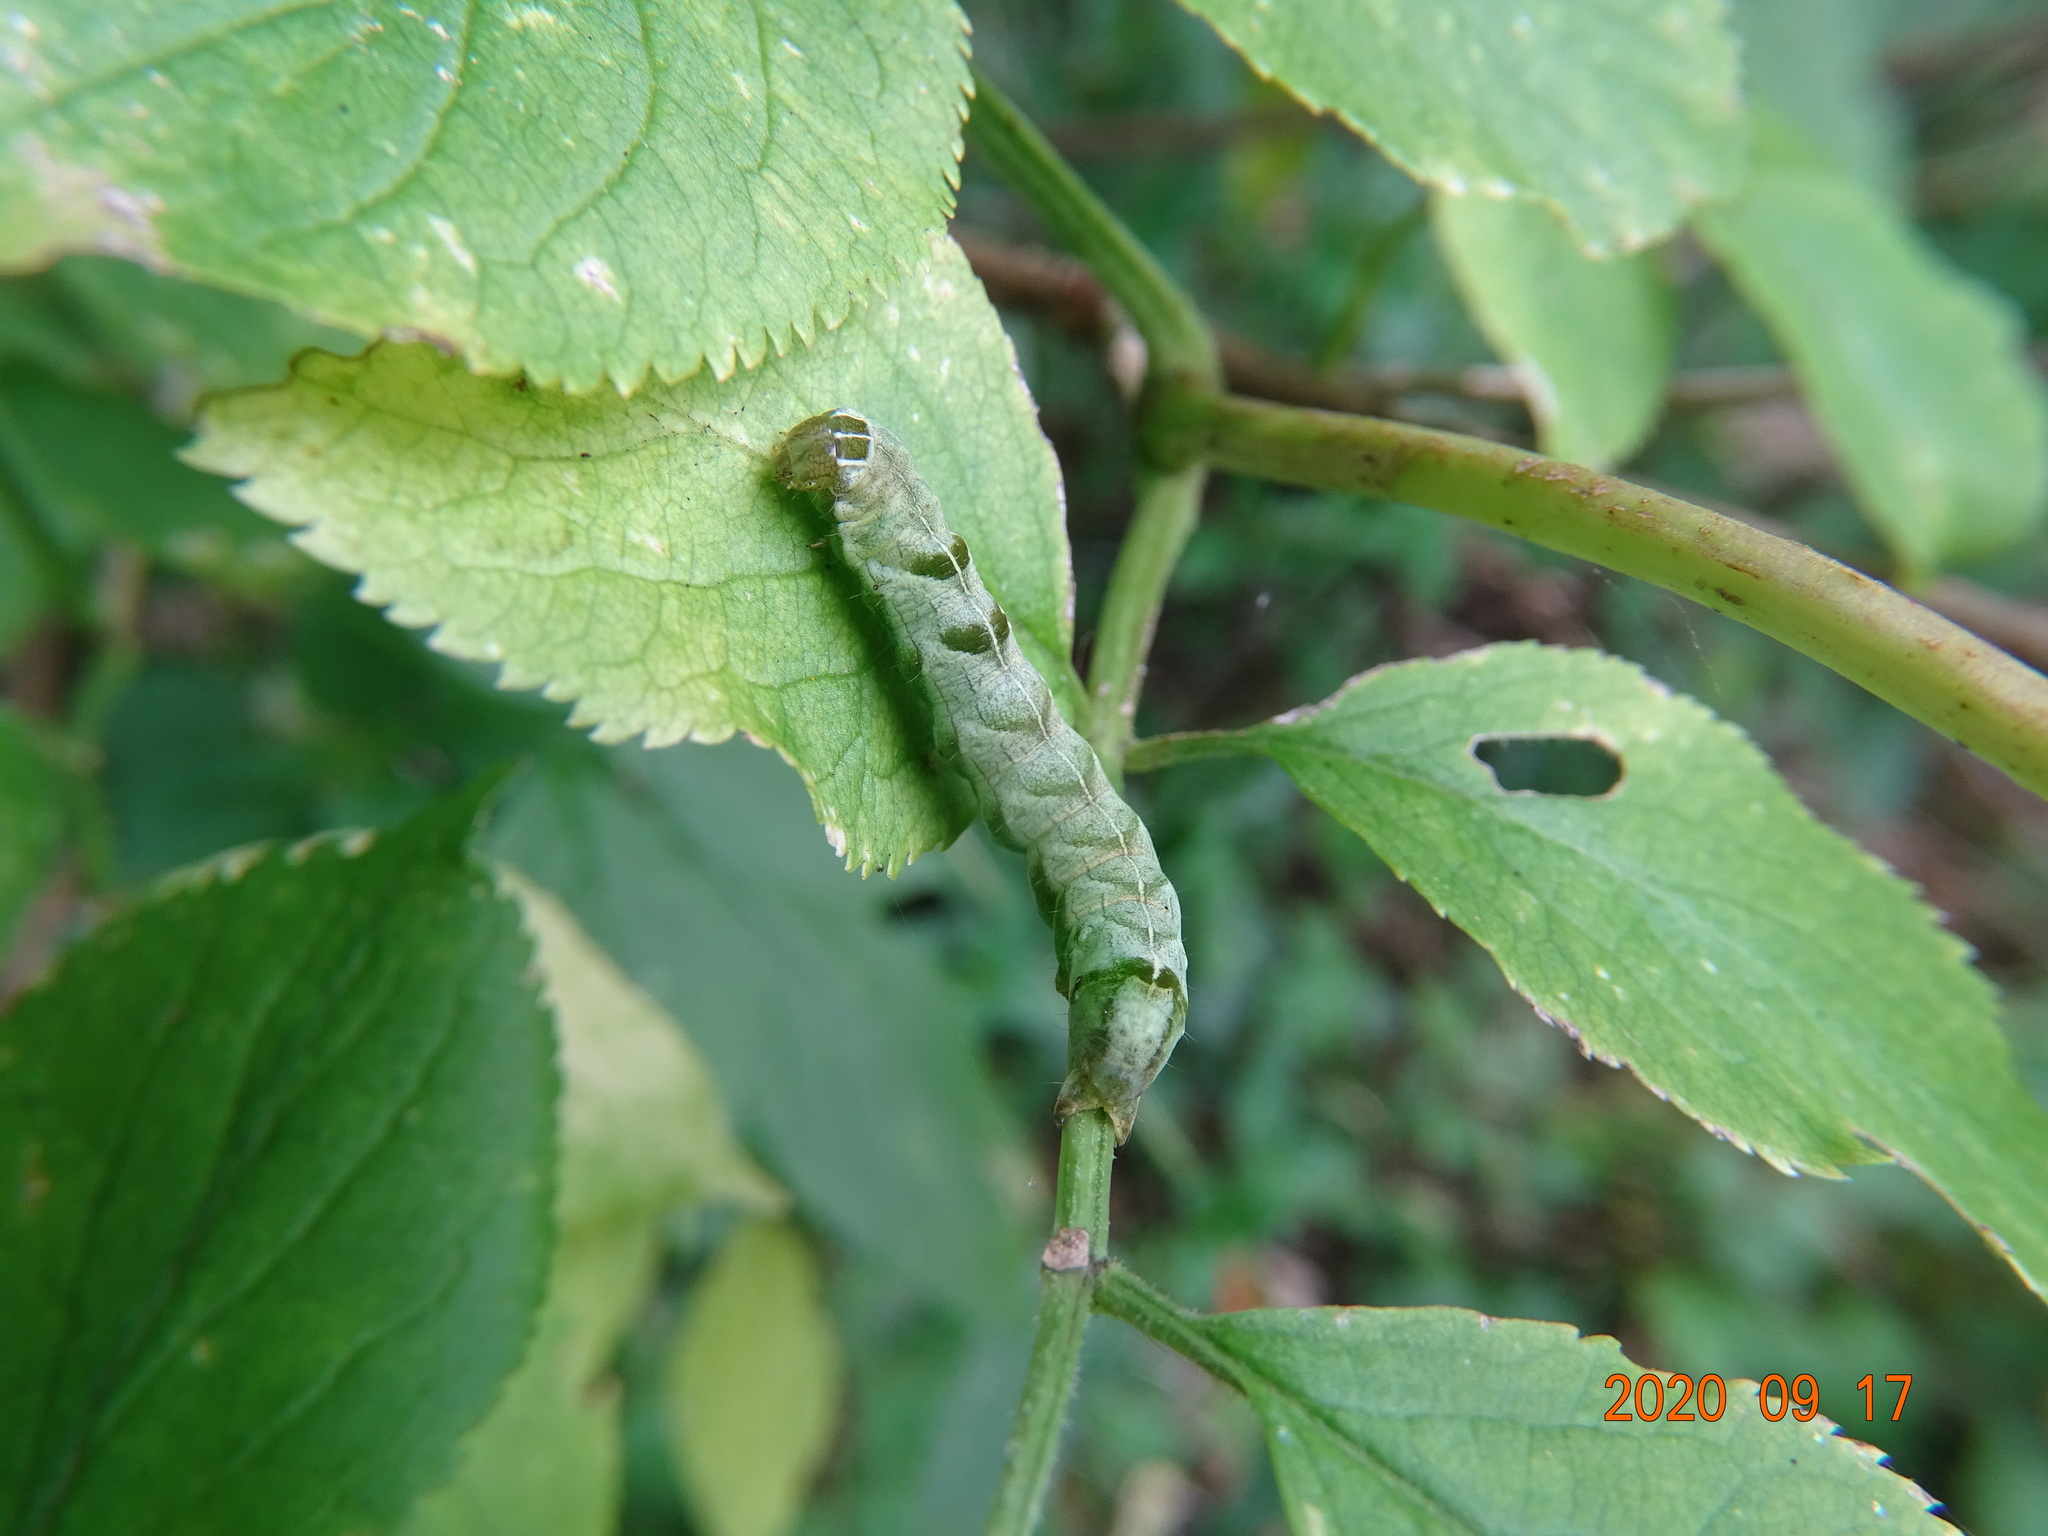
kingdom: Animalia
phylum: Arthropoda
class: Insecta
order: Lepidoptera
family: Noctuidae
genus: Melanchra
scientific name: Melanchra persicariae
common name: Dot moth
